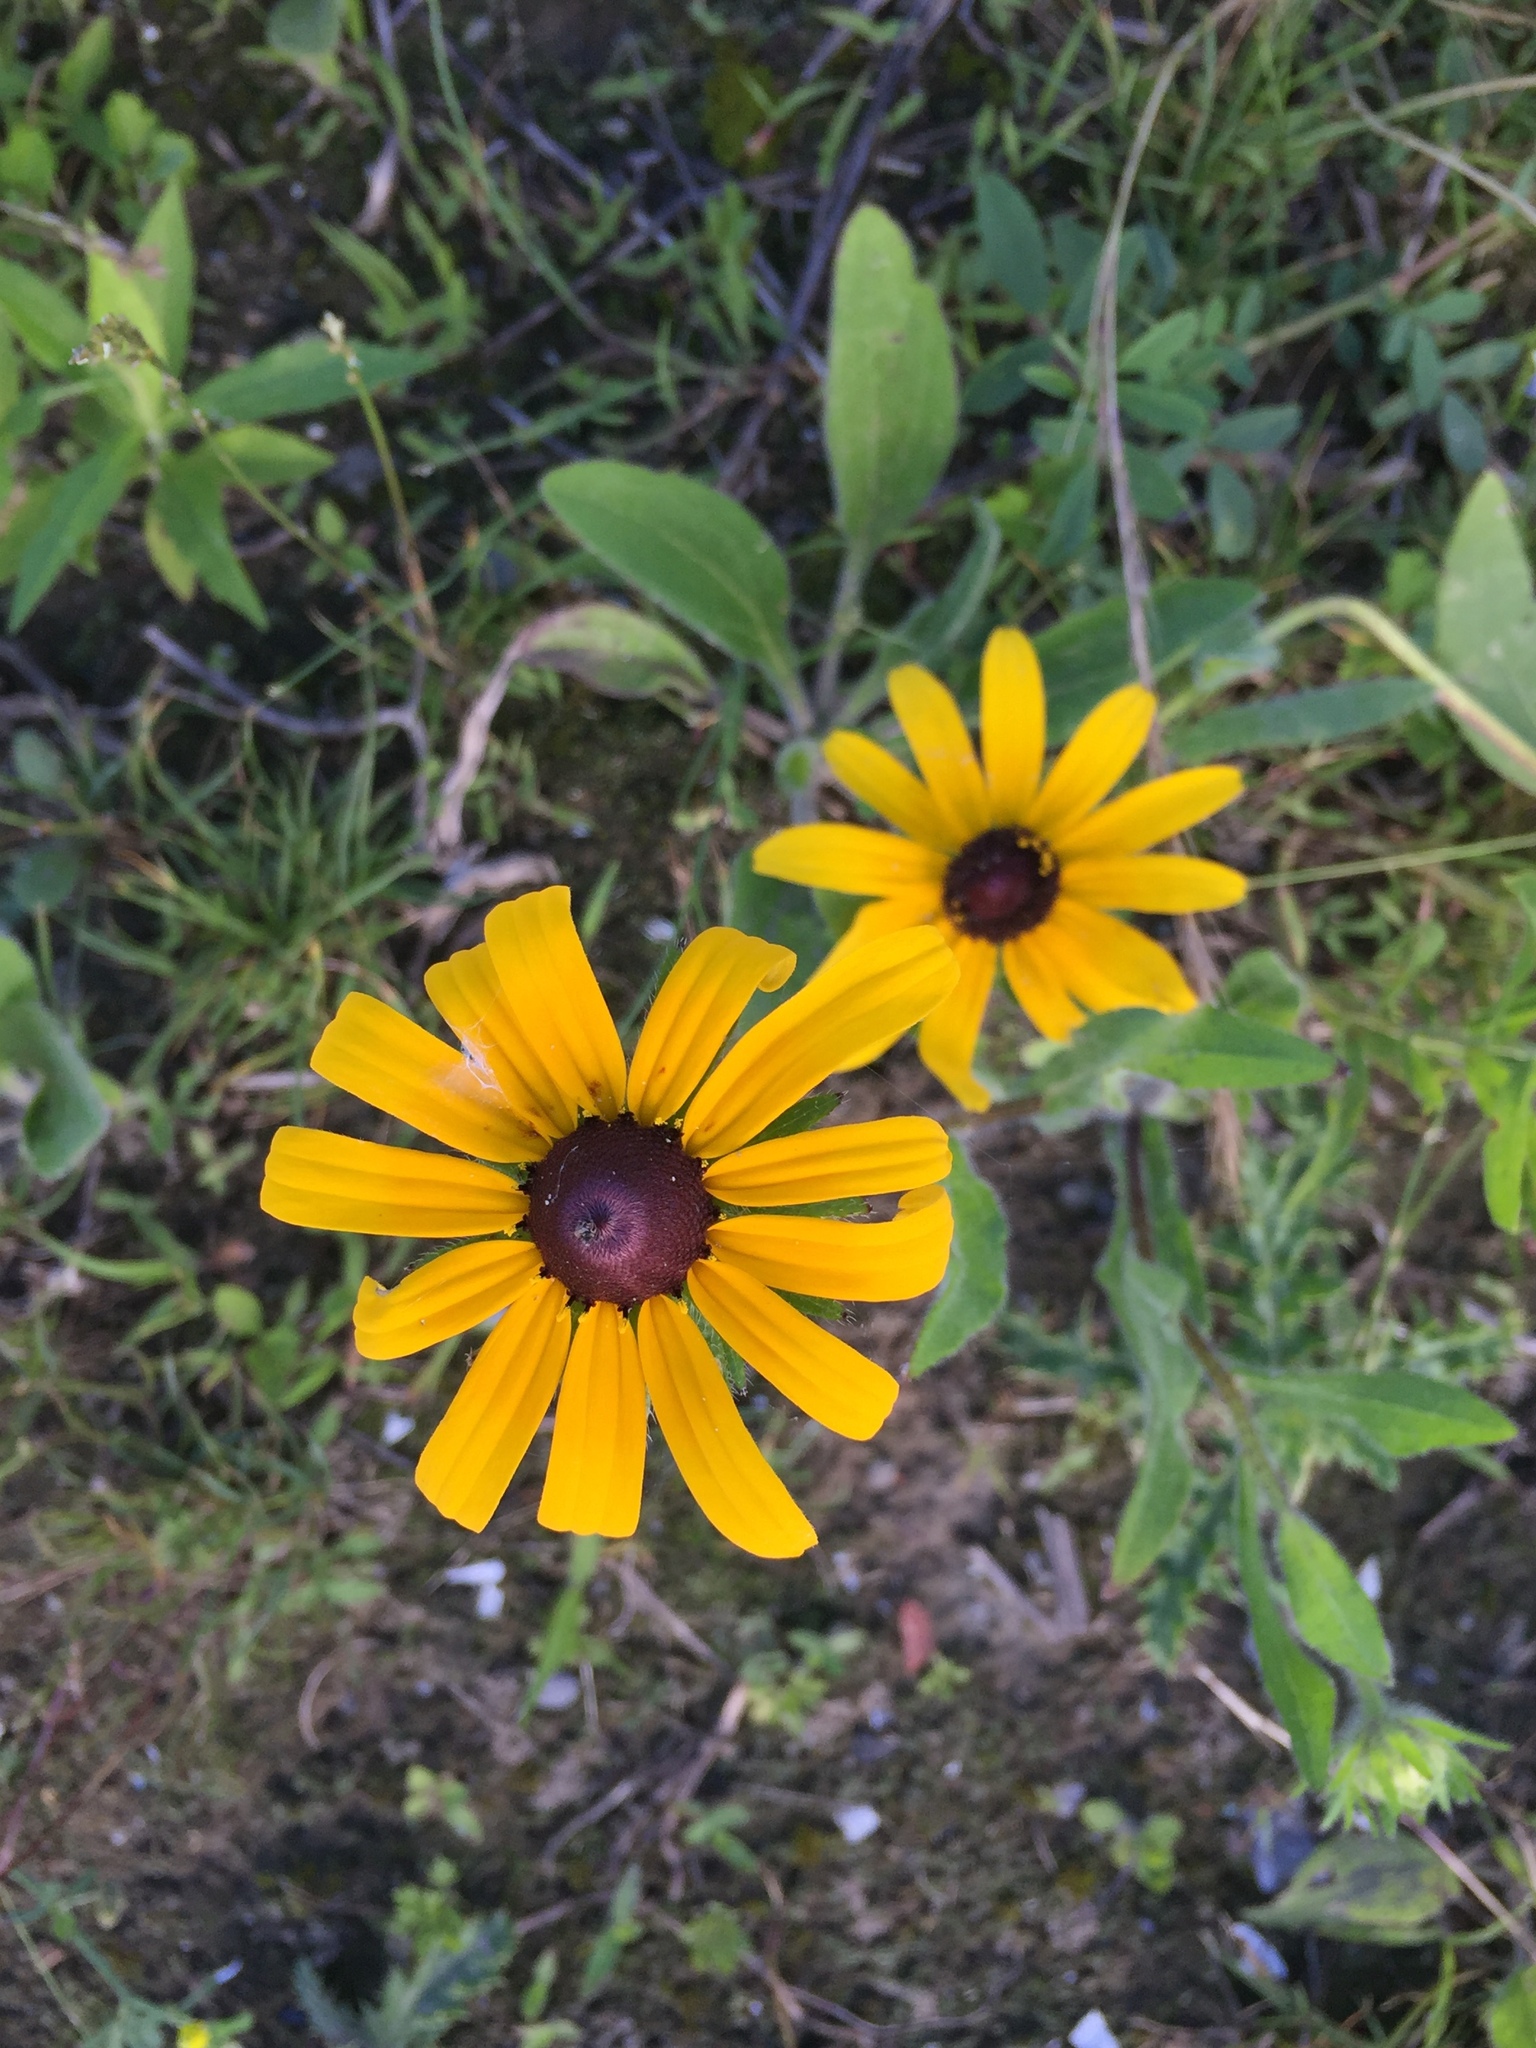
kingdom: Plantae
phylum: Tracheophyta
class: Magnoliopsida
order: Asterales
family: Asteraceae
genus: Rudbeckia
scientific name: Rudbeckia hirta
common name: Black-eyed-susan
